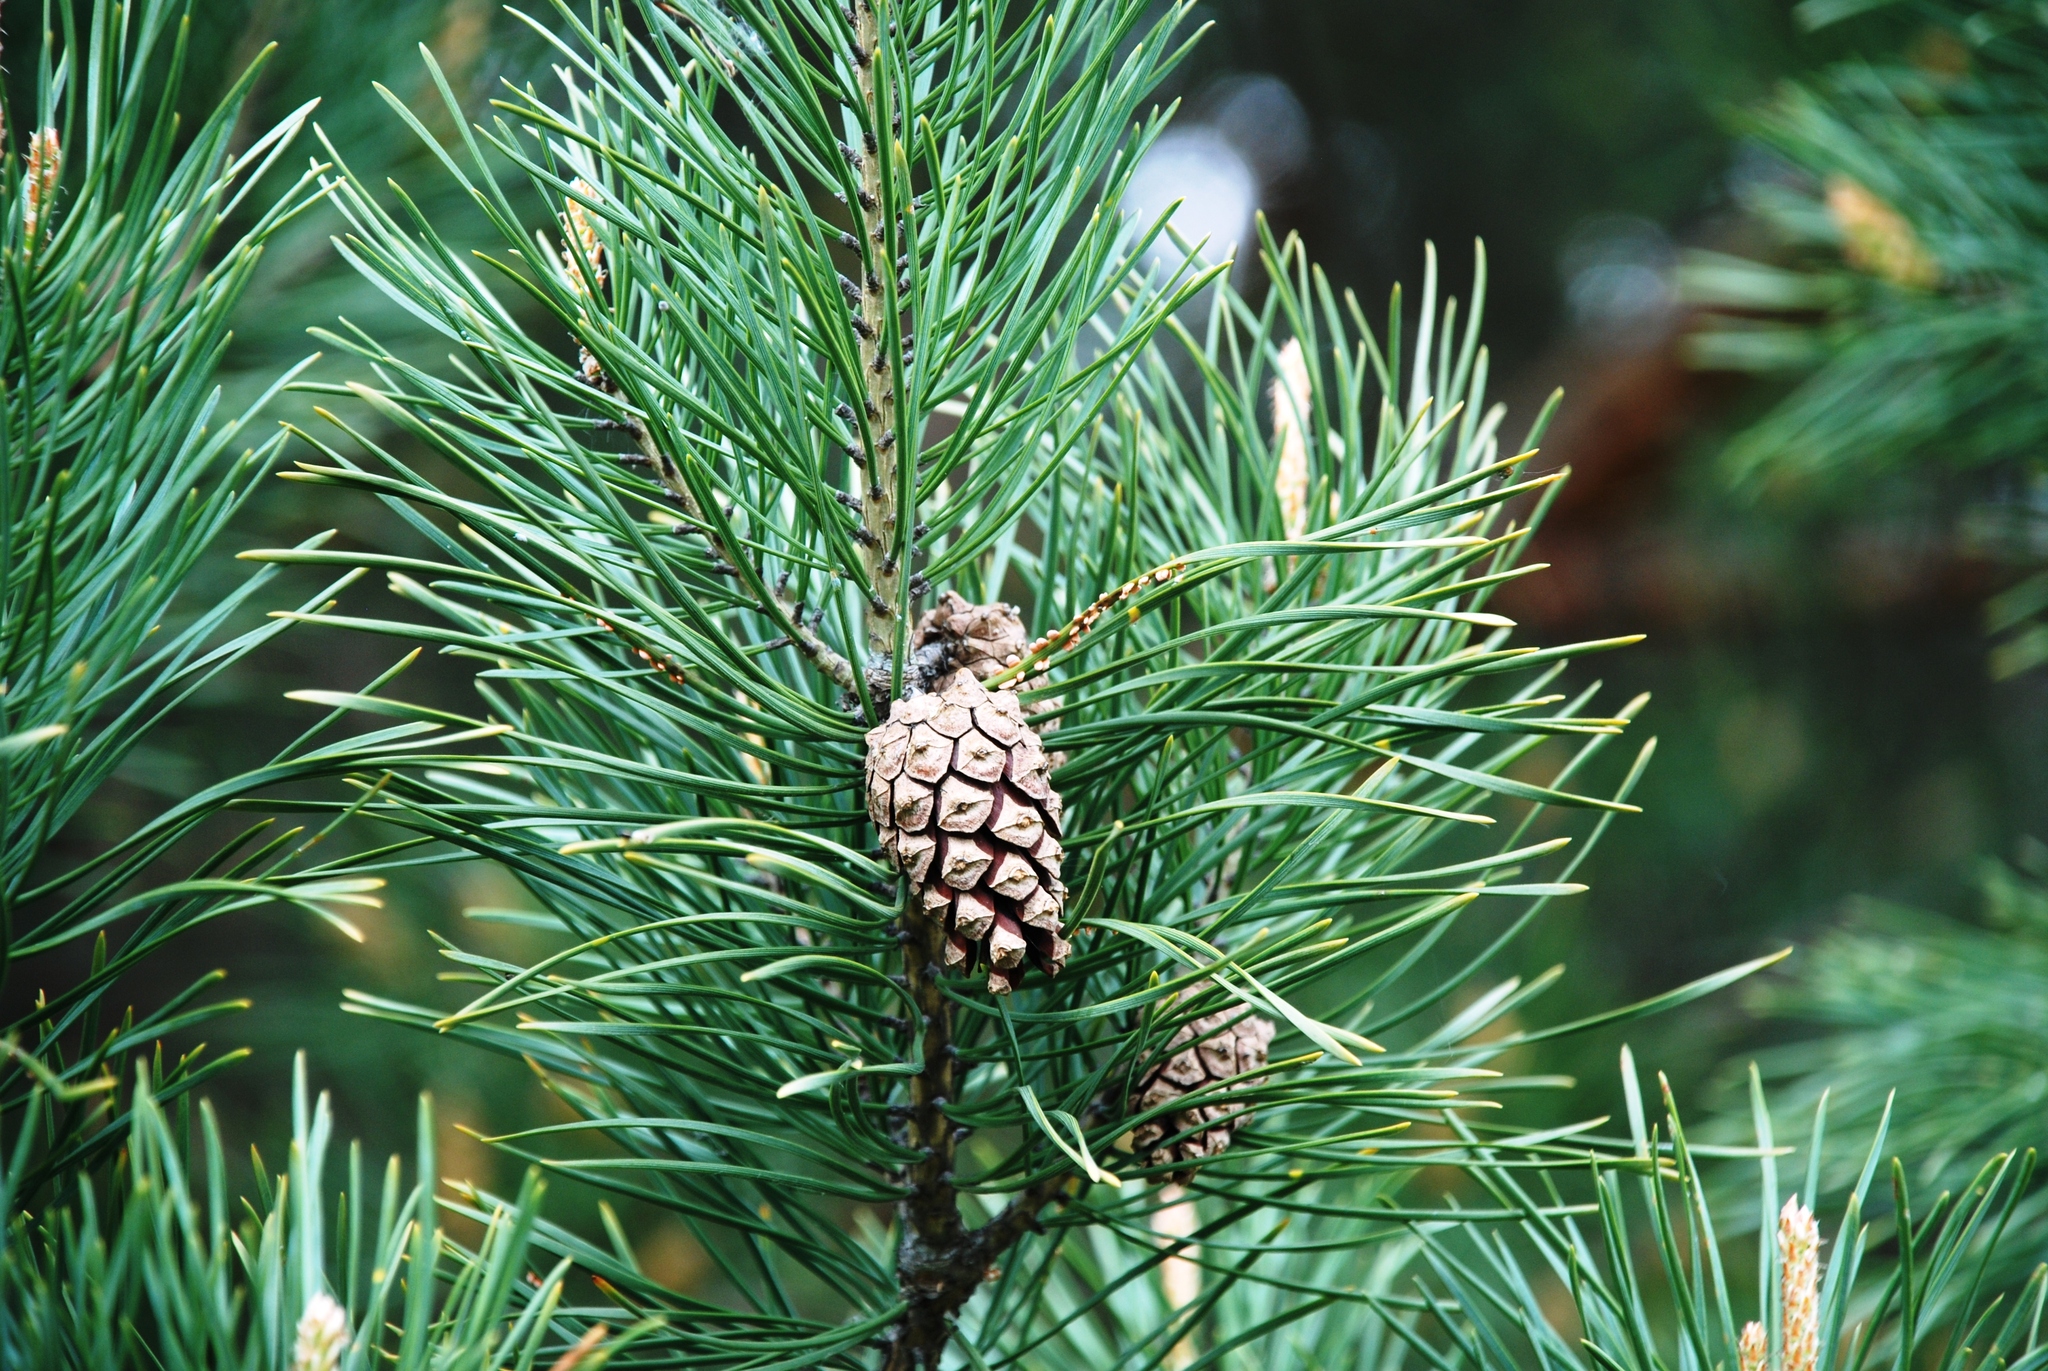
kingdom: Fungi
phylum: Basidiomycota
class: Pucciniomycetes
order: Pucciniales
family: Cronartiaceae
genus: Peridermium
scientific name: Peridermium oblongisporium
